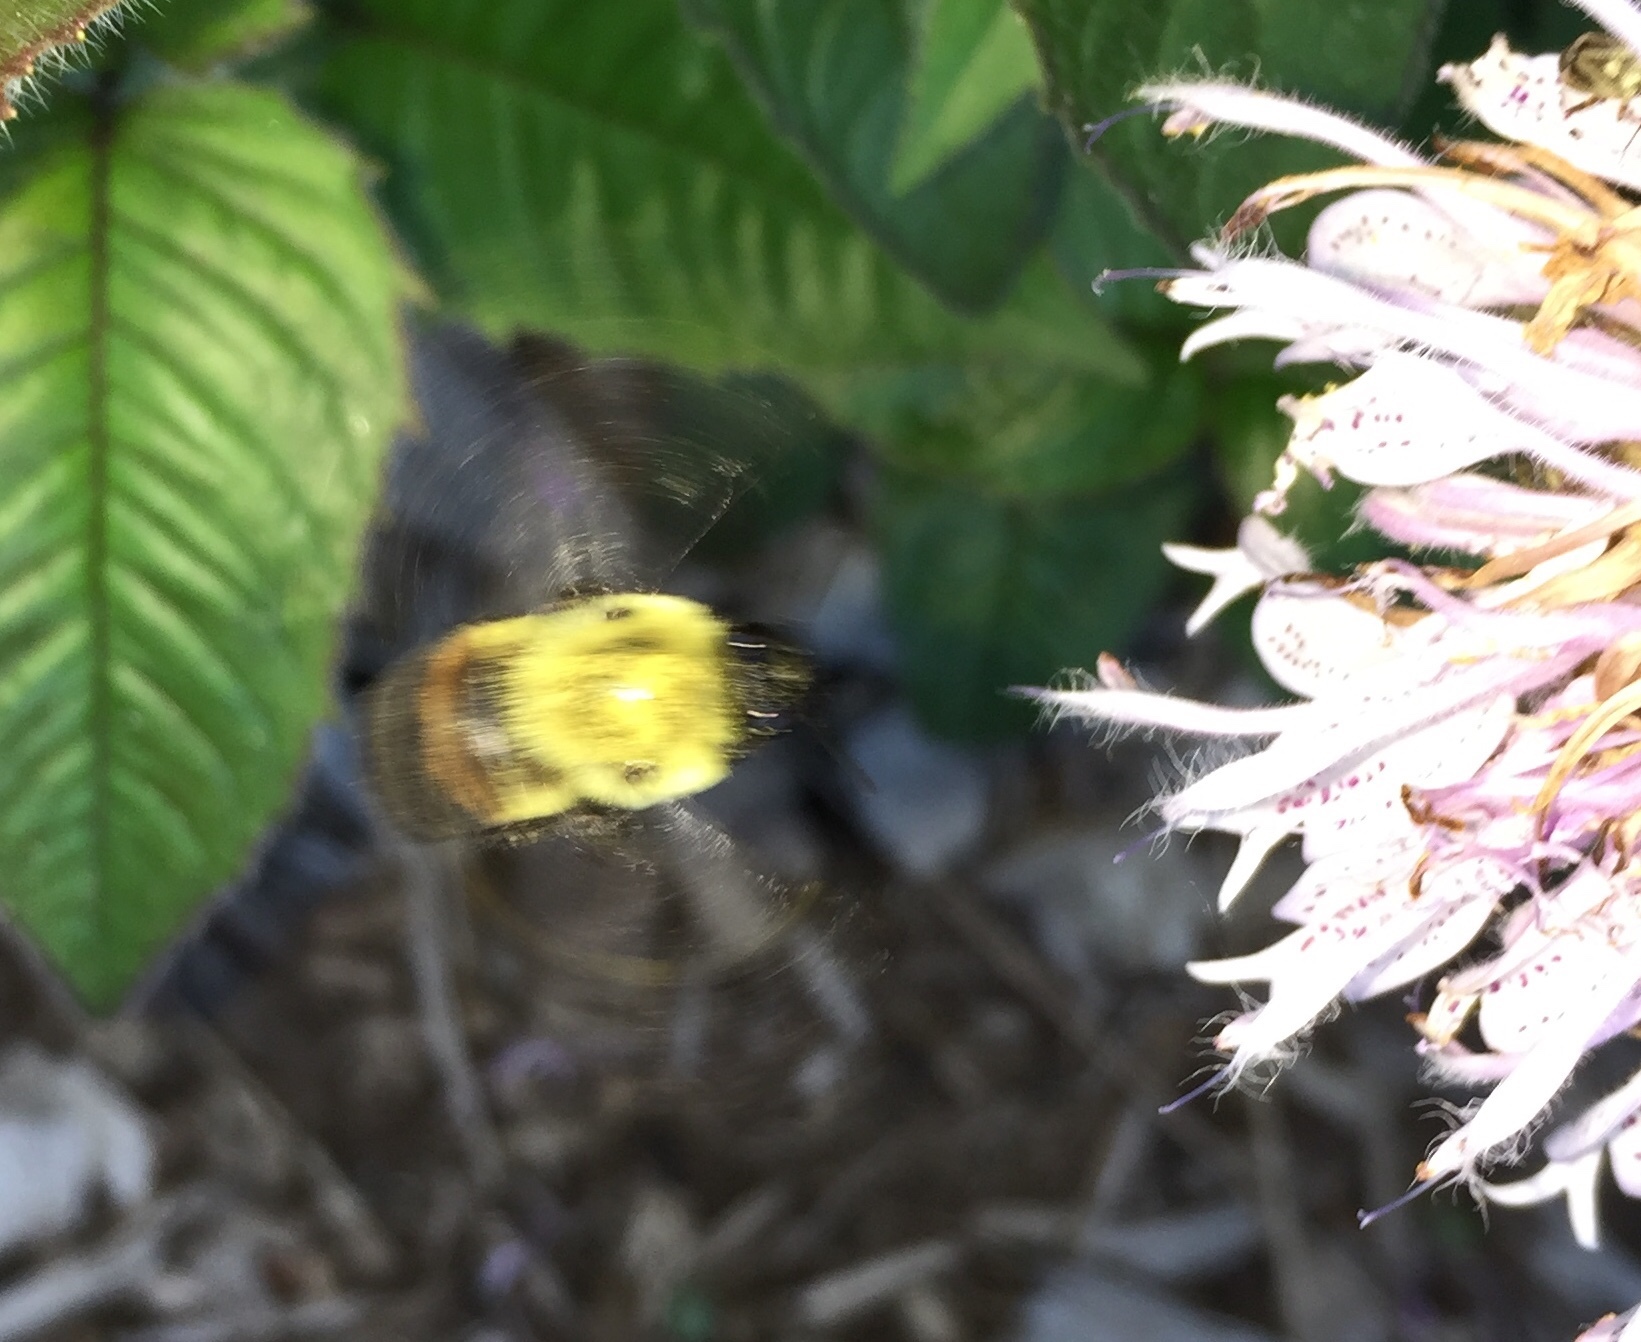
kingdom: Animalia
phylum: Arthropoda
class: Insecta
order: Hymenoptera
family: Apidae
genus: Bombus
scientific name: Bombus griseocollis
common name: Brown-belted bumble bee
